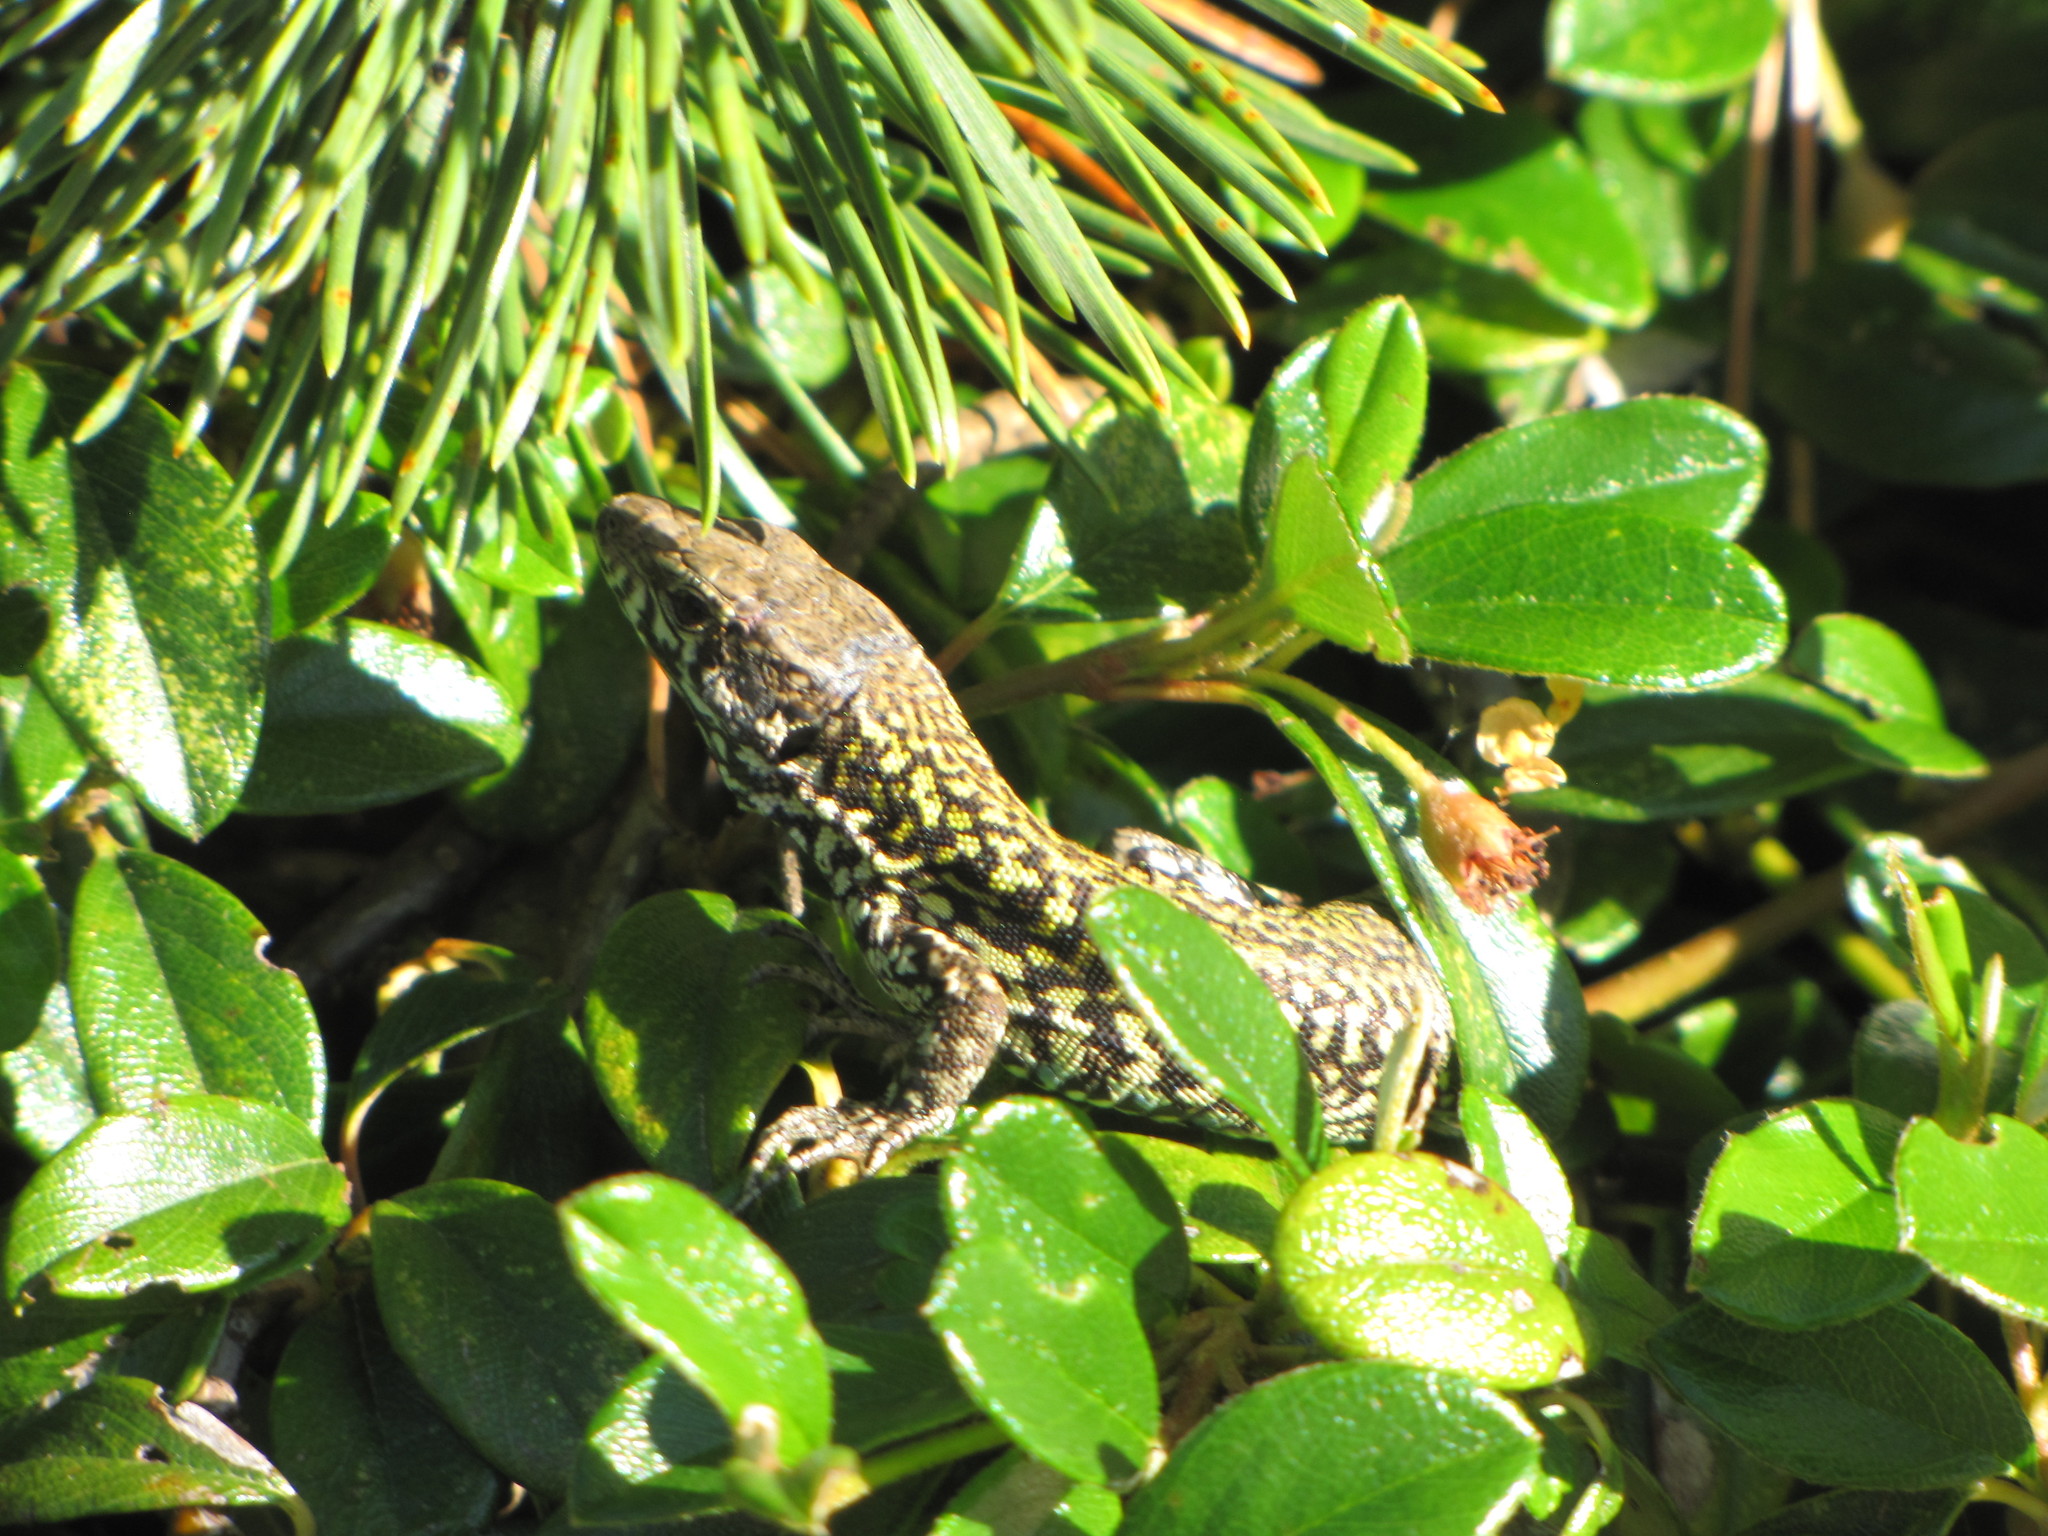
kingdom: Animalia
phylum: Chordata
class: Squamata
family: Lacertidae
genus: Podarcis
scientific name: Podarcis muralis
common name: Common wall lizard
